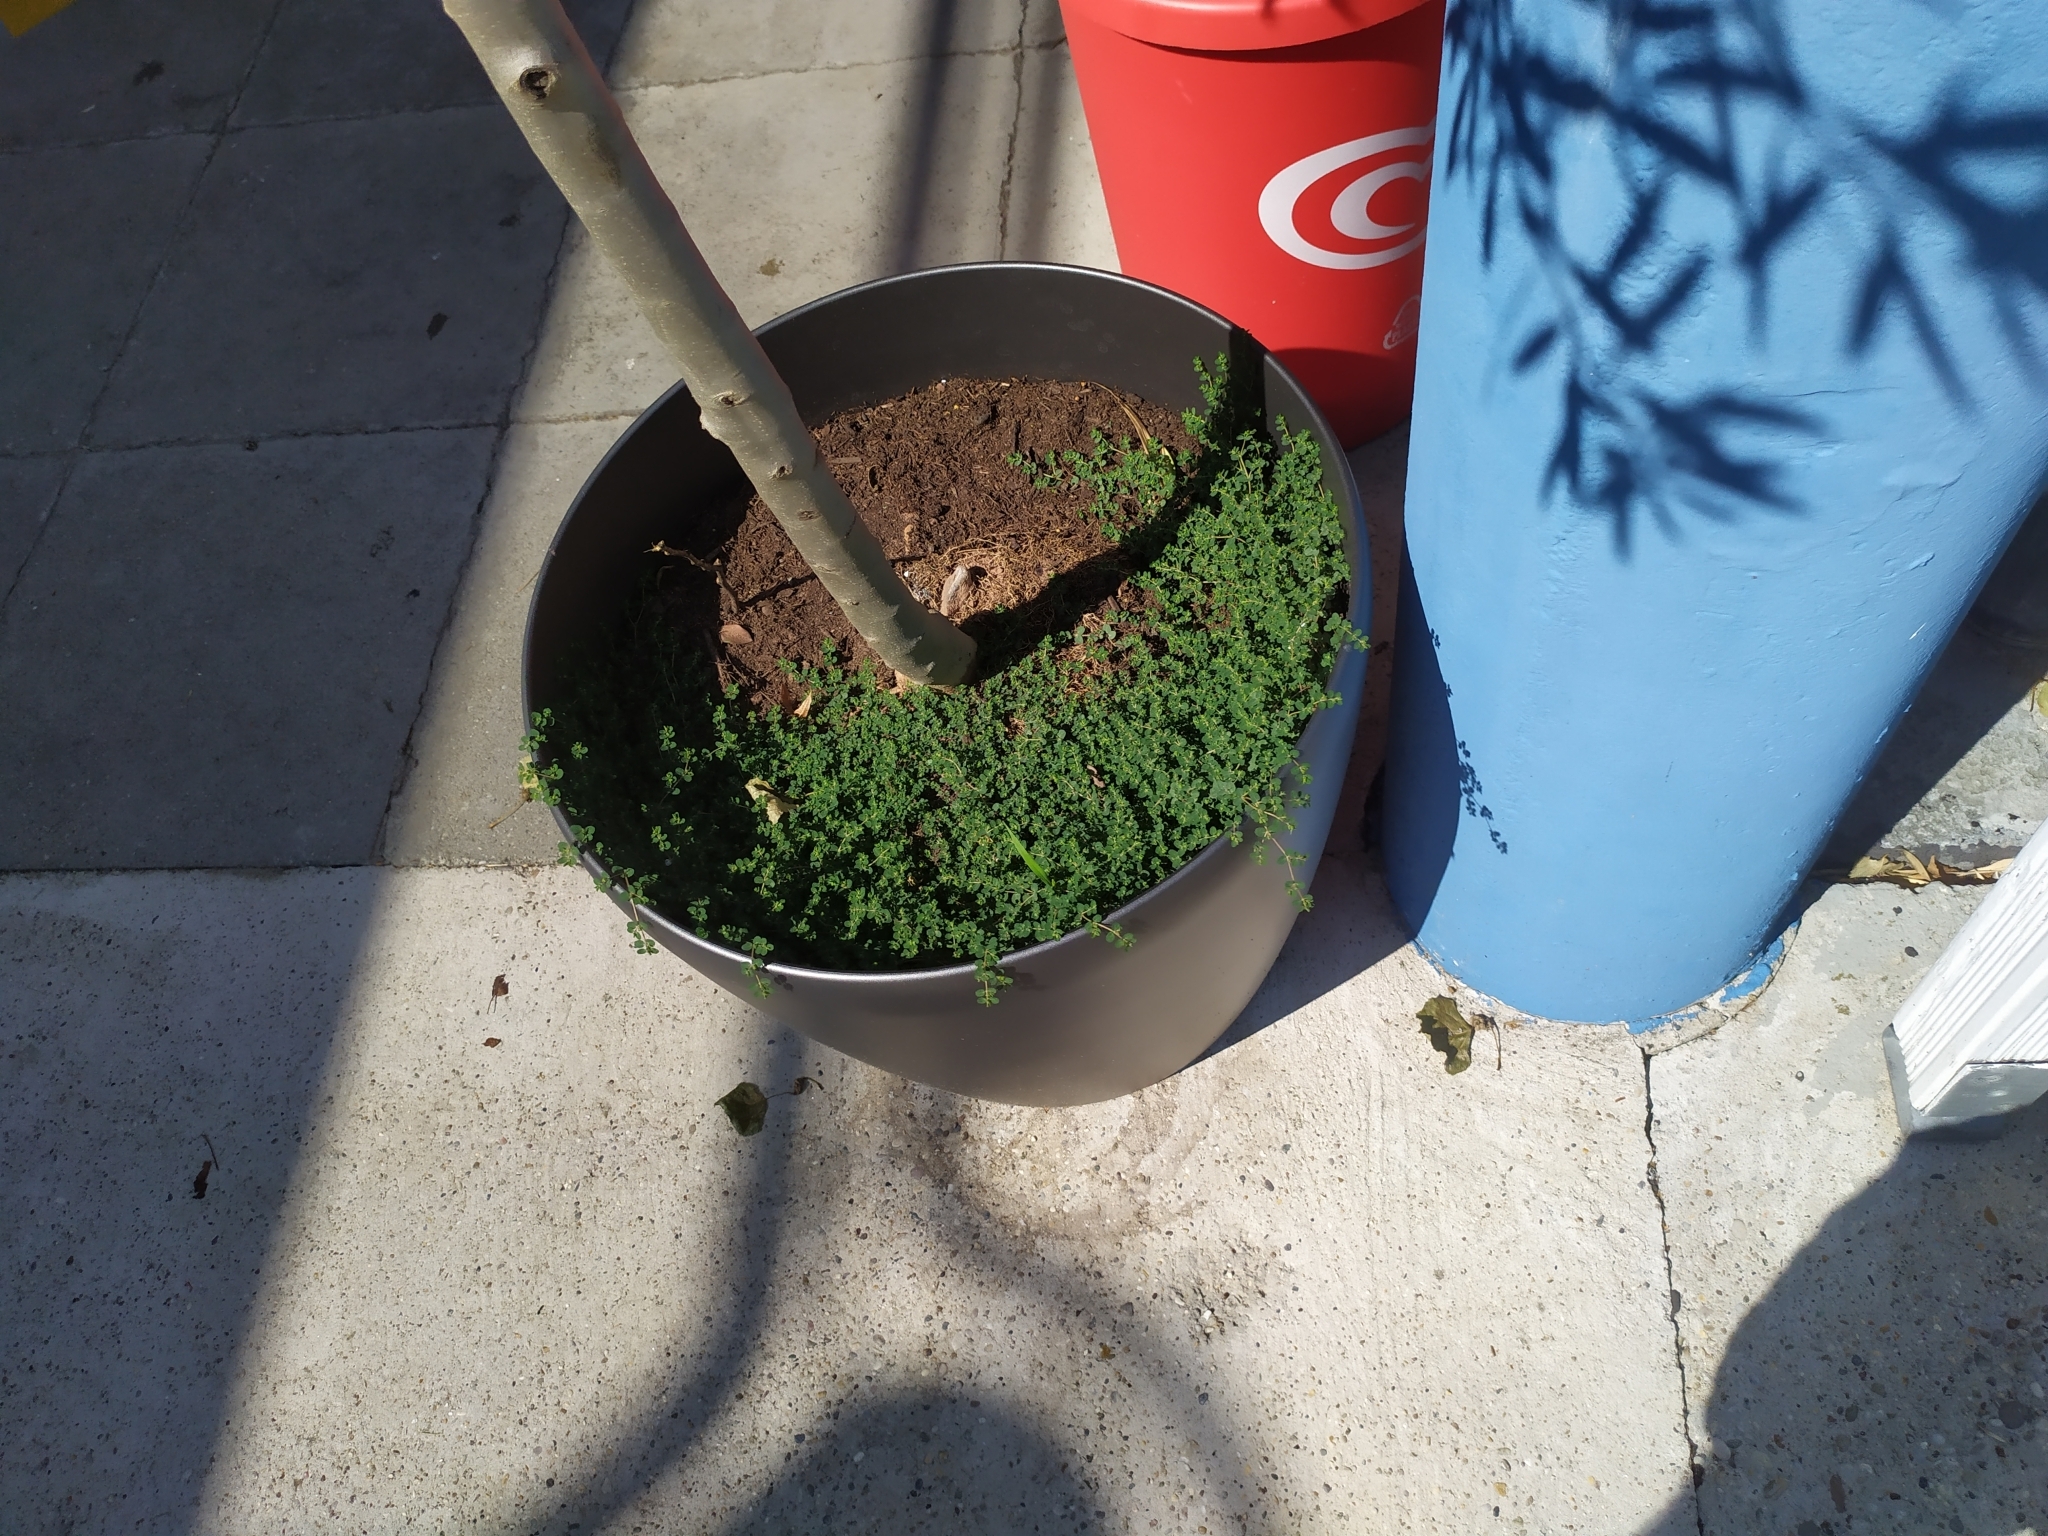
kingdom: Plantae
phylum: Tracheophyta
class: Magnoliopsida
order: Malpighiales
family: Euphorbiaceae
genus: Euphorbia
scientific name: Euphorbia serpens
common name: Matted sandmat
